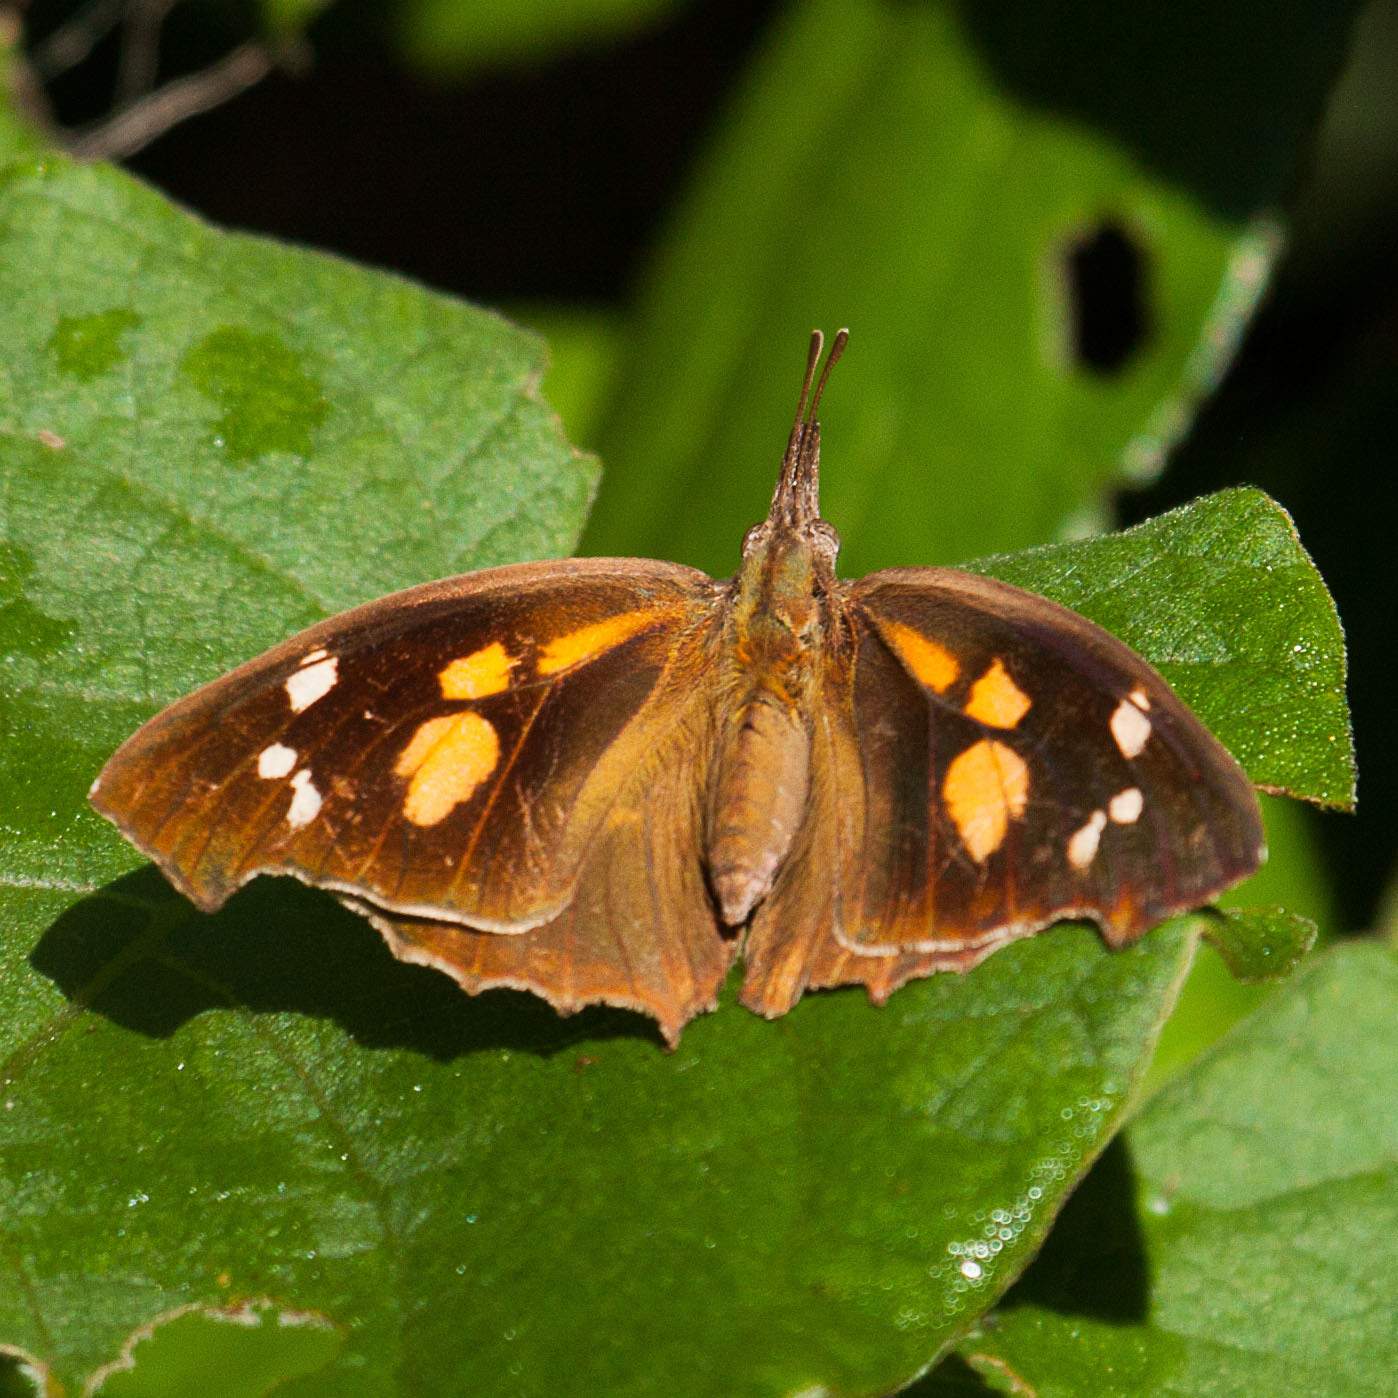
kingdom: Animalia
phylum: Arthropoda
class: Insecta
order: Lepidoptera
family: Nymphalidae
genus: Libythea
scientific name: Libythea laius
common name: African snout
